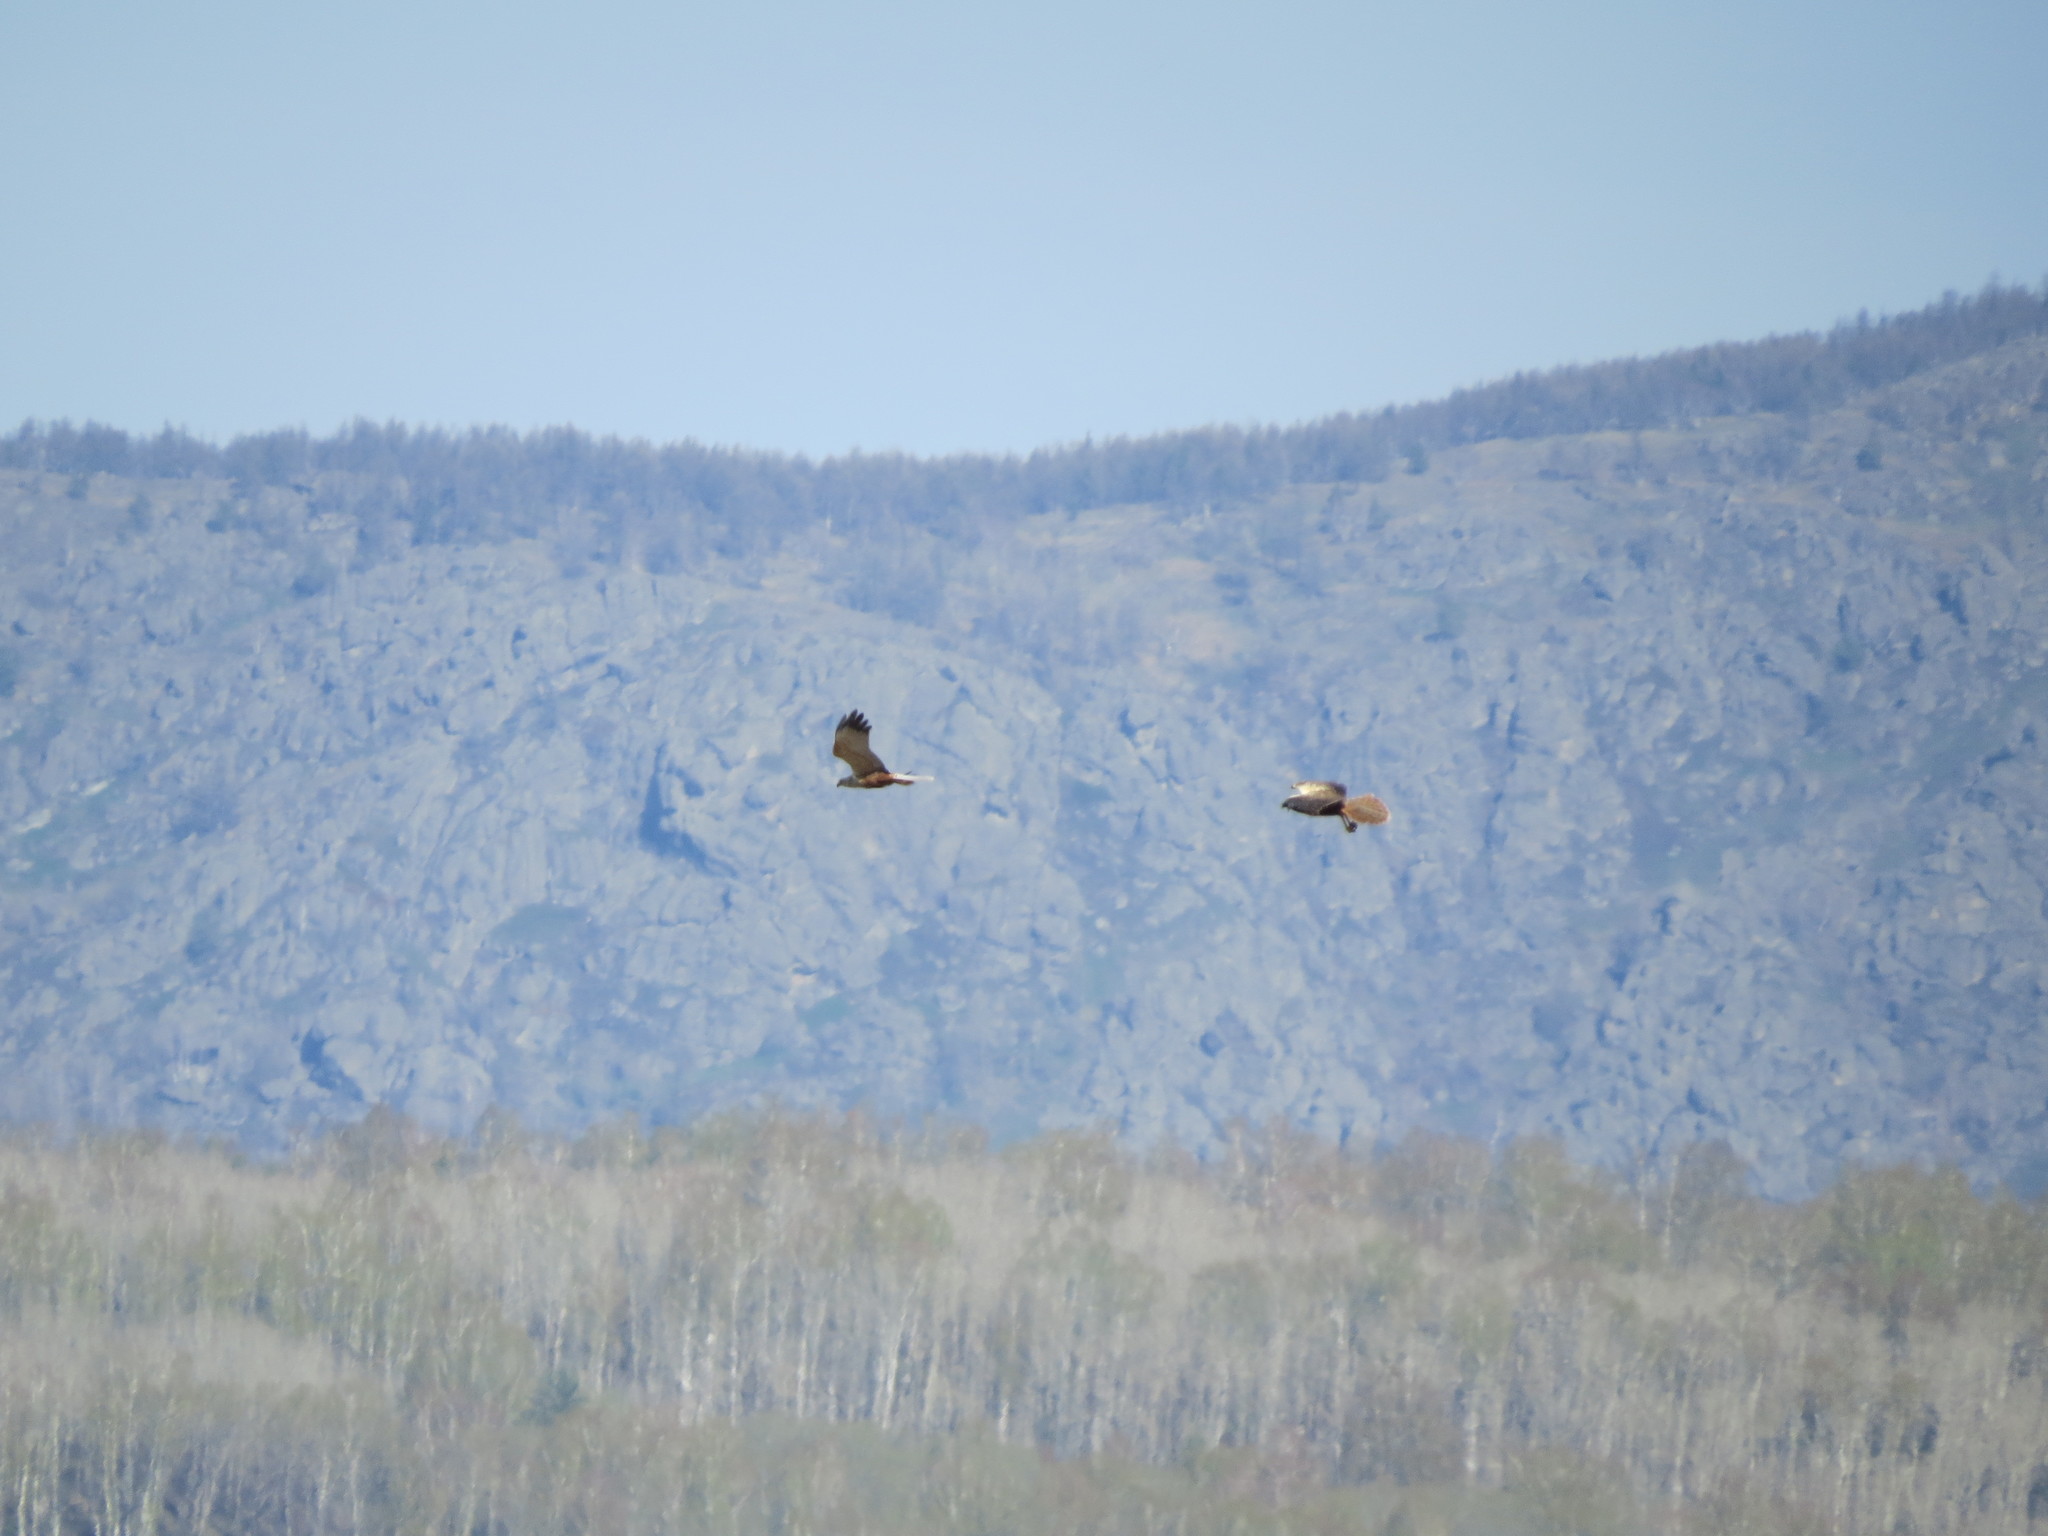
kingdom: Animalia
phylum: Chordata
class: Aves
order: Accipitriformes
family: Accipitridae
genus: Circus
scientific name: Circus aeruginosus
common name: Western marsh harrier
